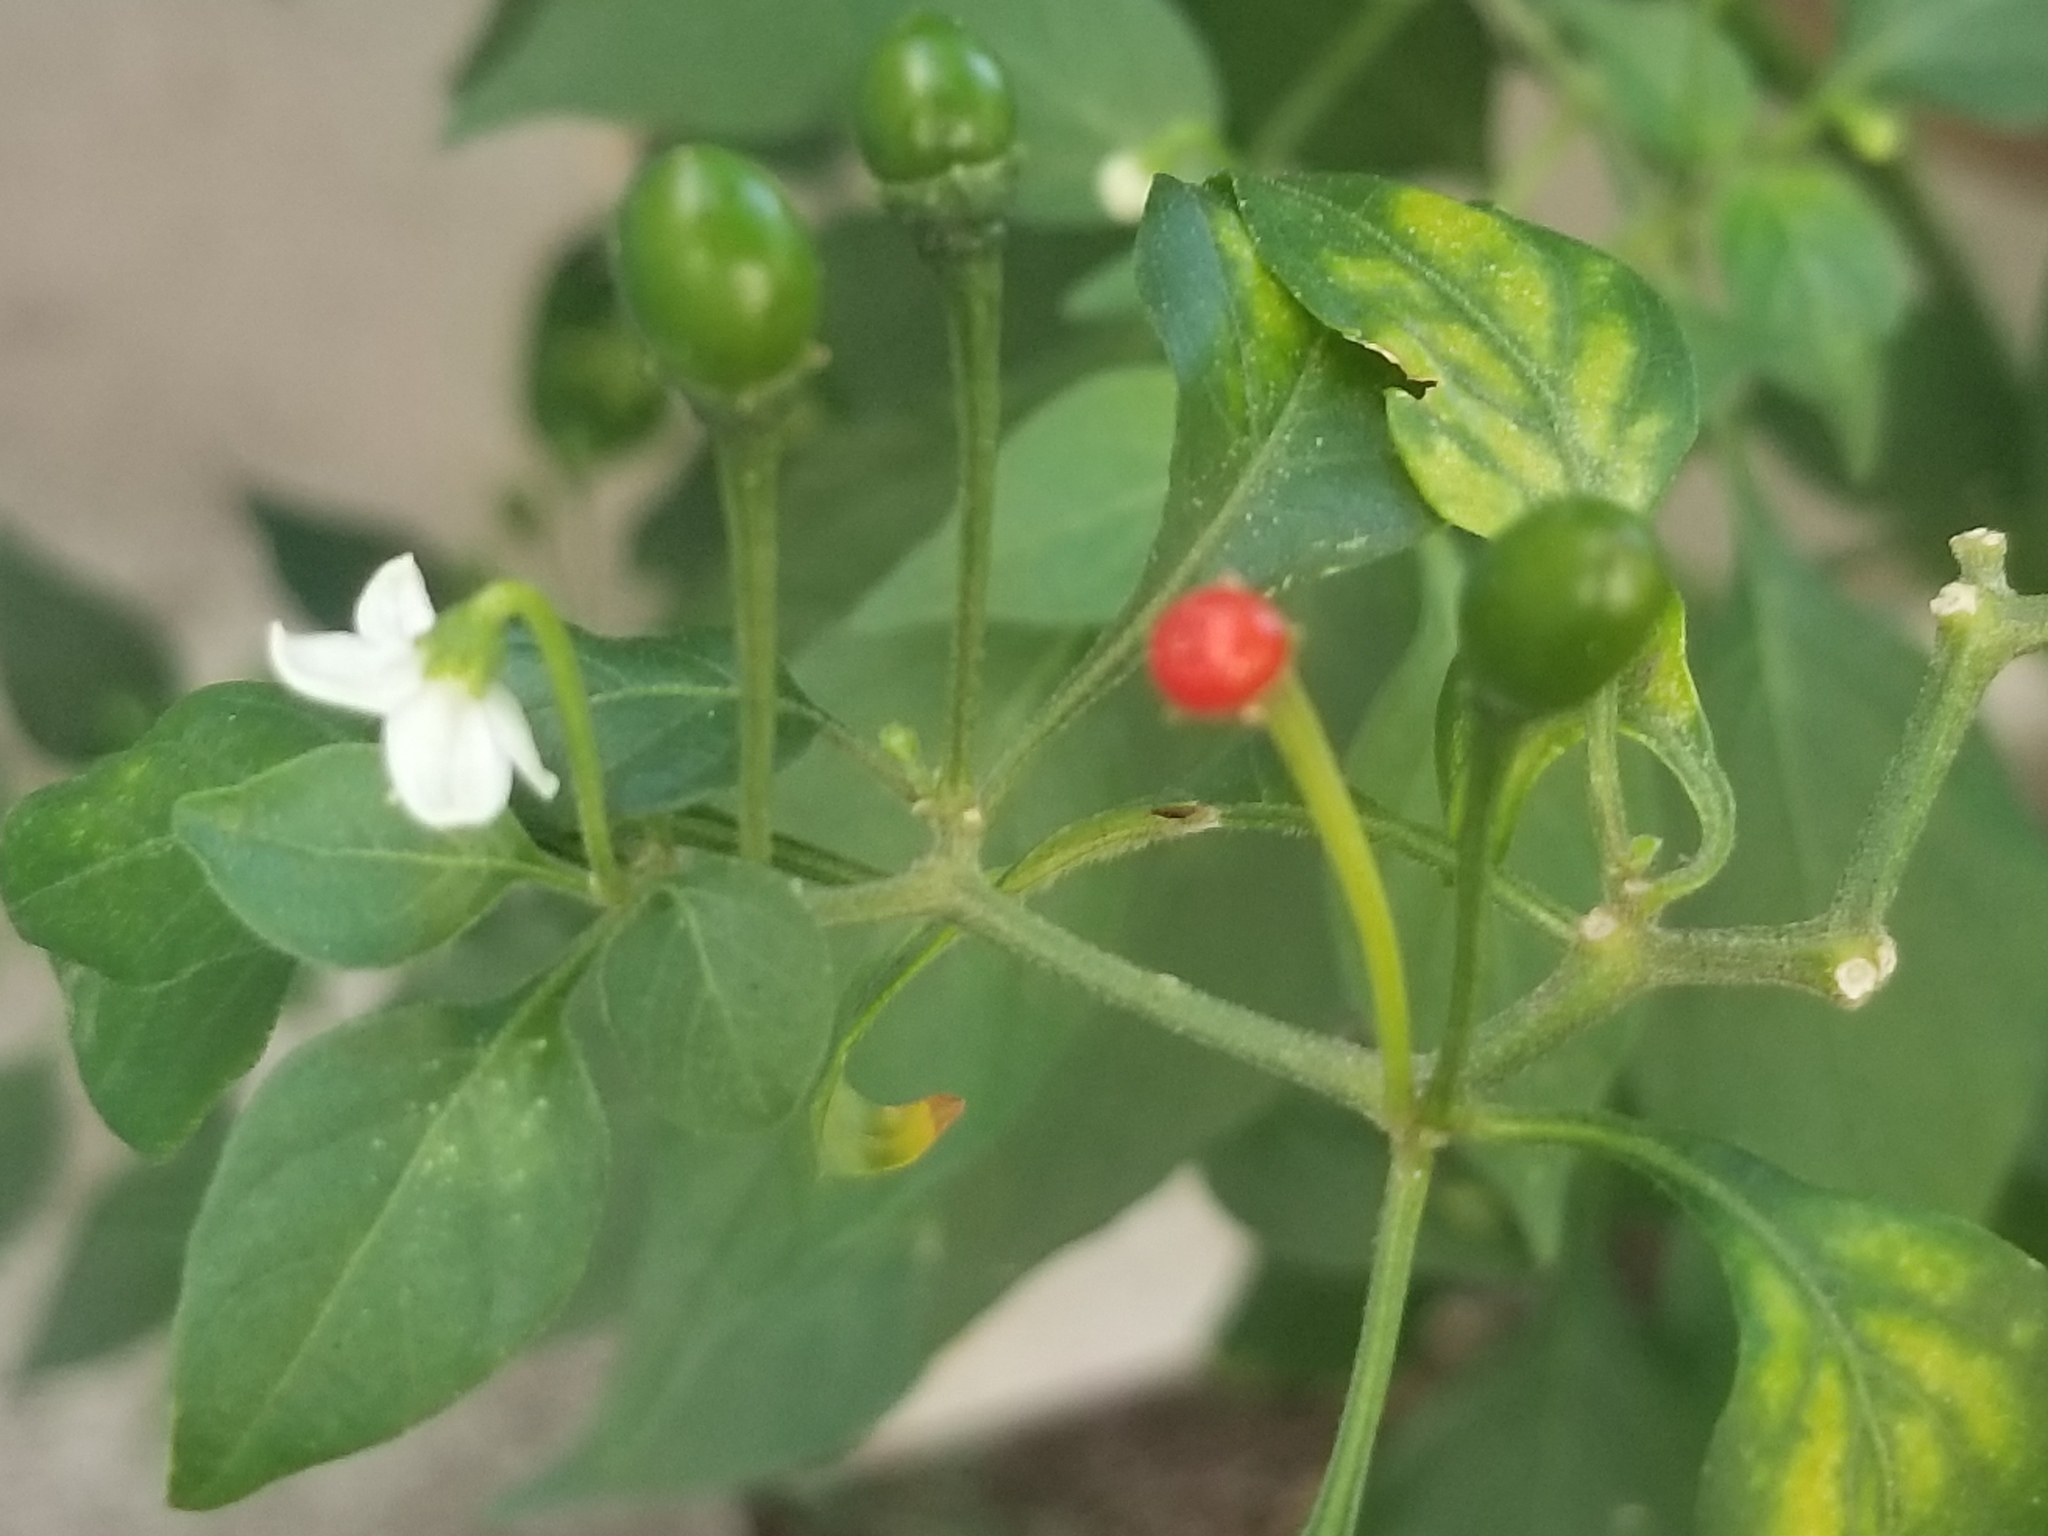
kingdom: Plantae
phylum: Tracheophyta
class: Magnoliopsida
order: Solanales
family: Solanaceae
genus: Capsicum
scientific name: Capsicum annuum
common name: Sweet pepper
